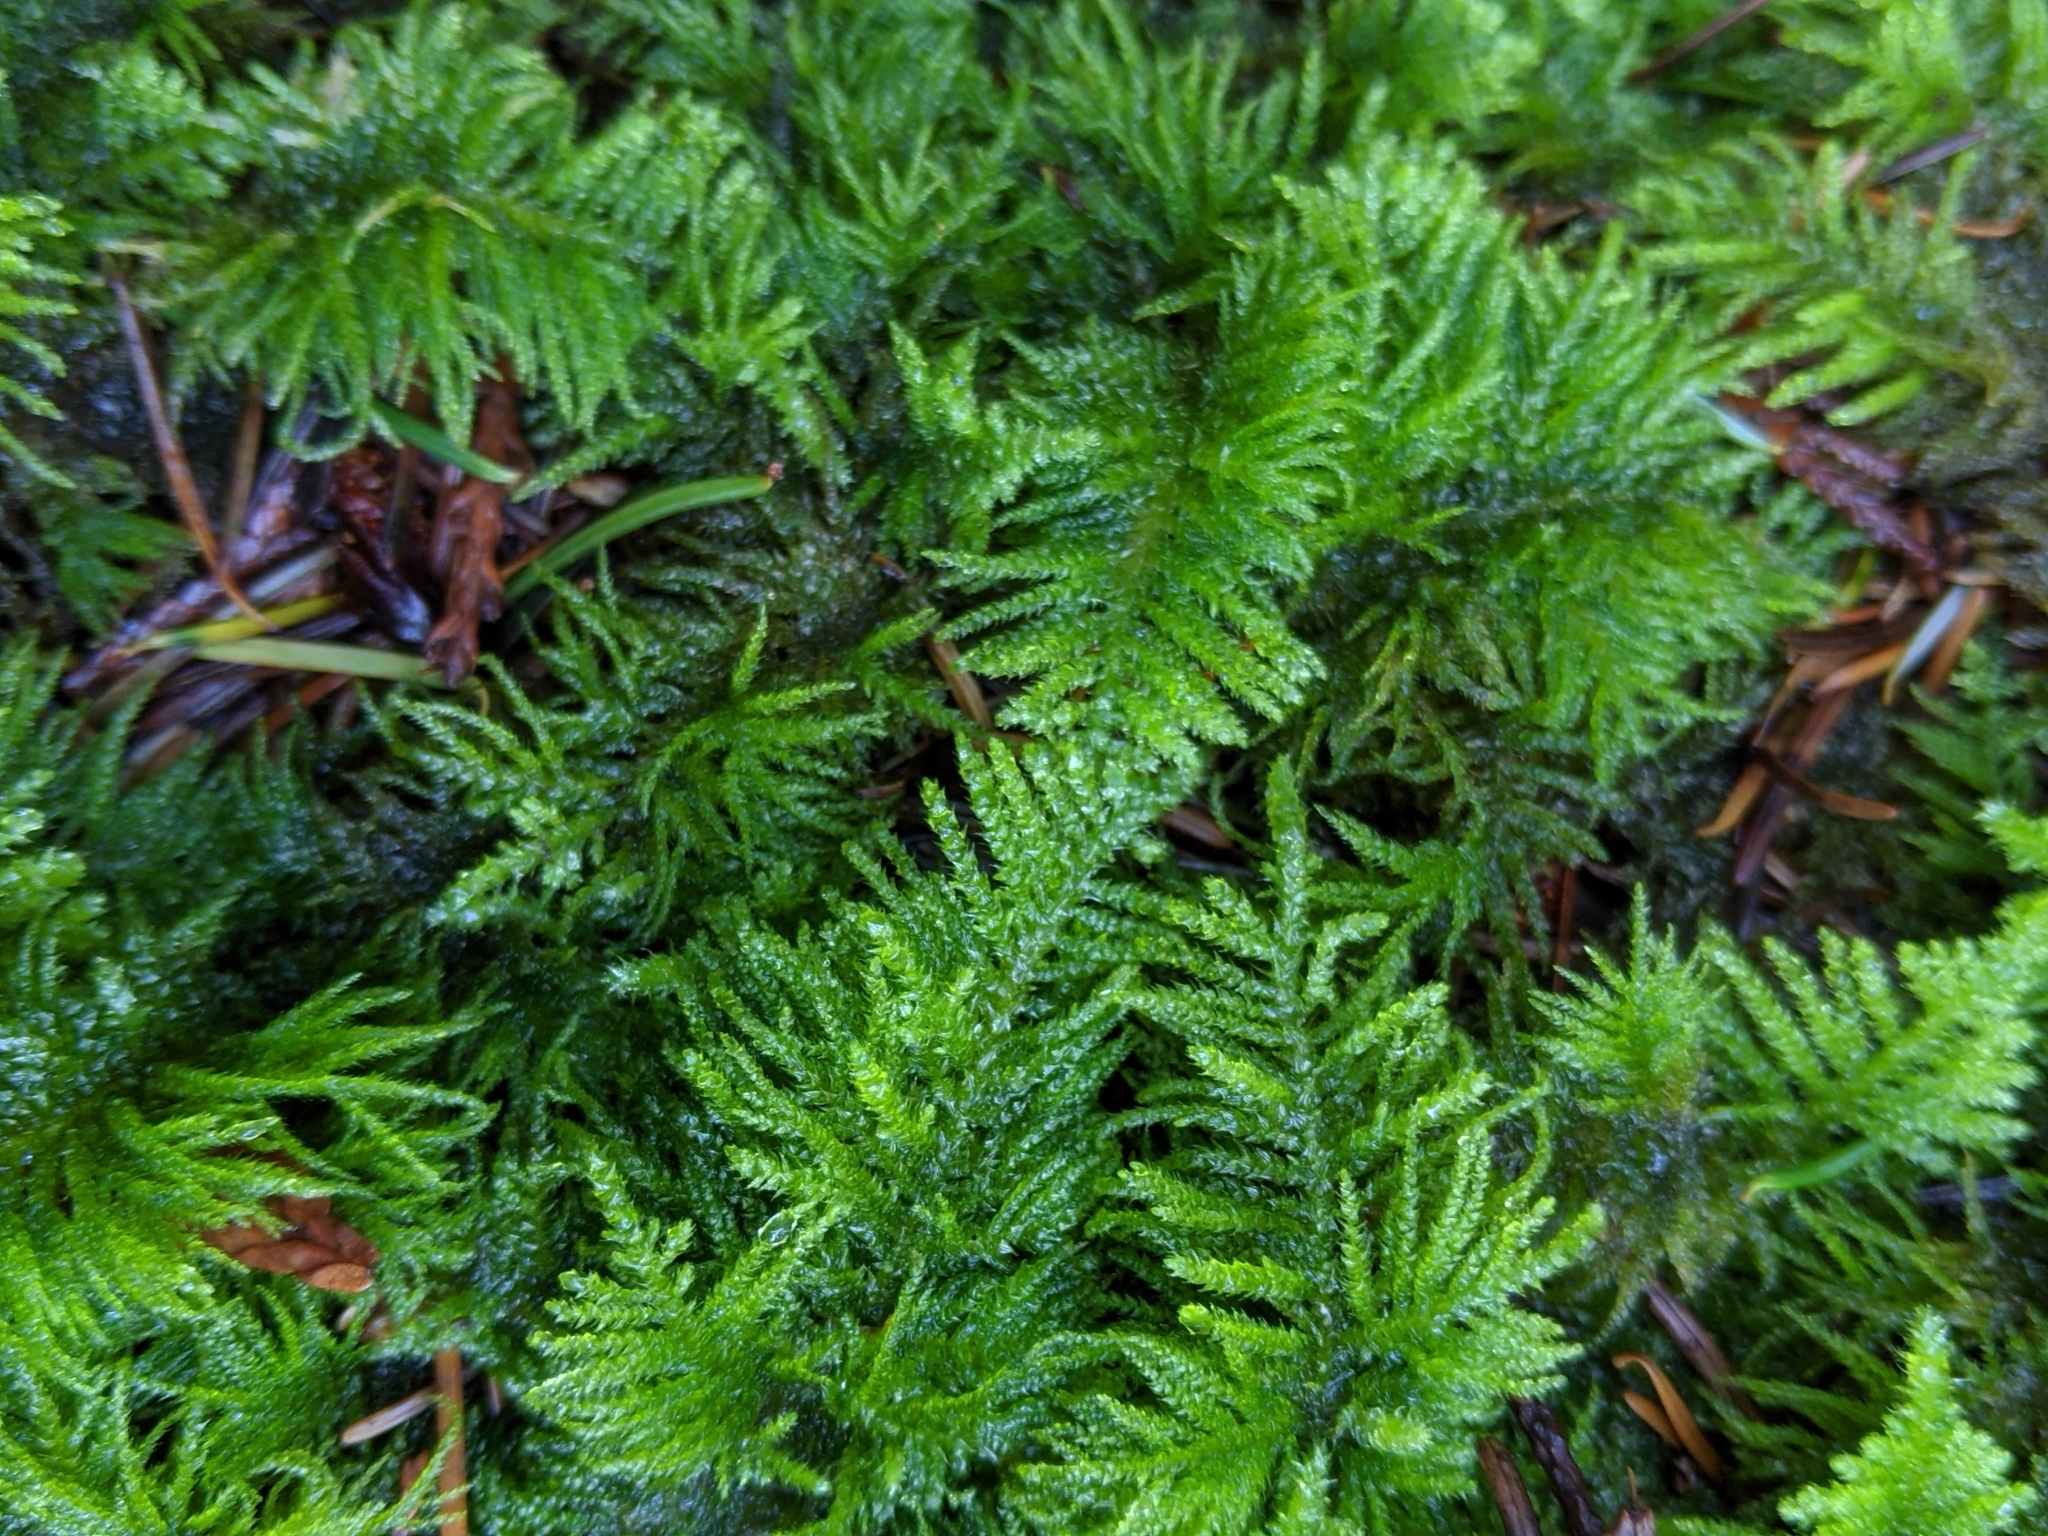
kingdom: Plantae
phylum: Bryophyta
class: Bryopsida
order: Hypnales
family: Brachytheciaceae
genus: Kindbergia
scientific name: Kindbergia oregana
